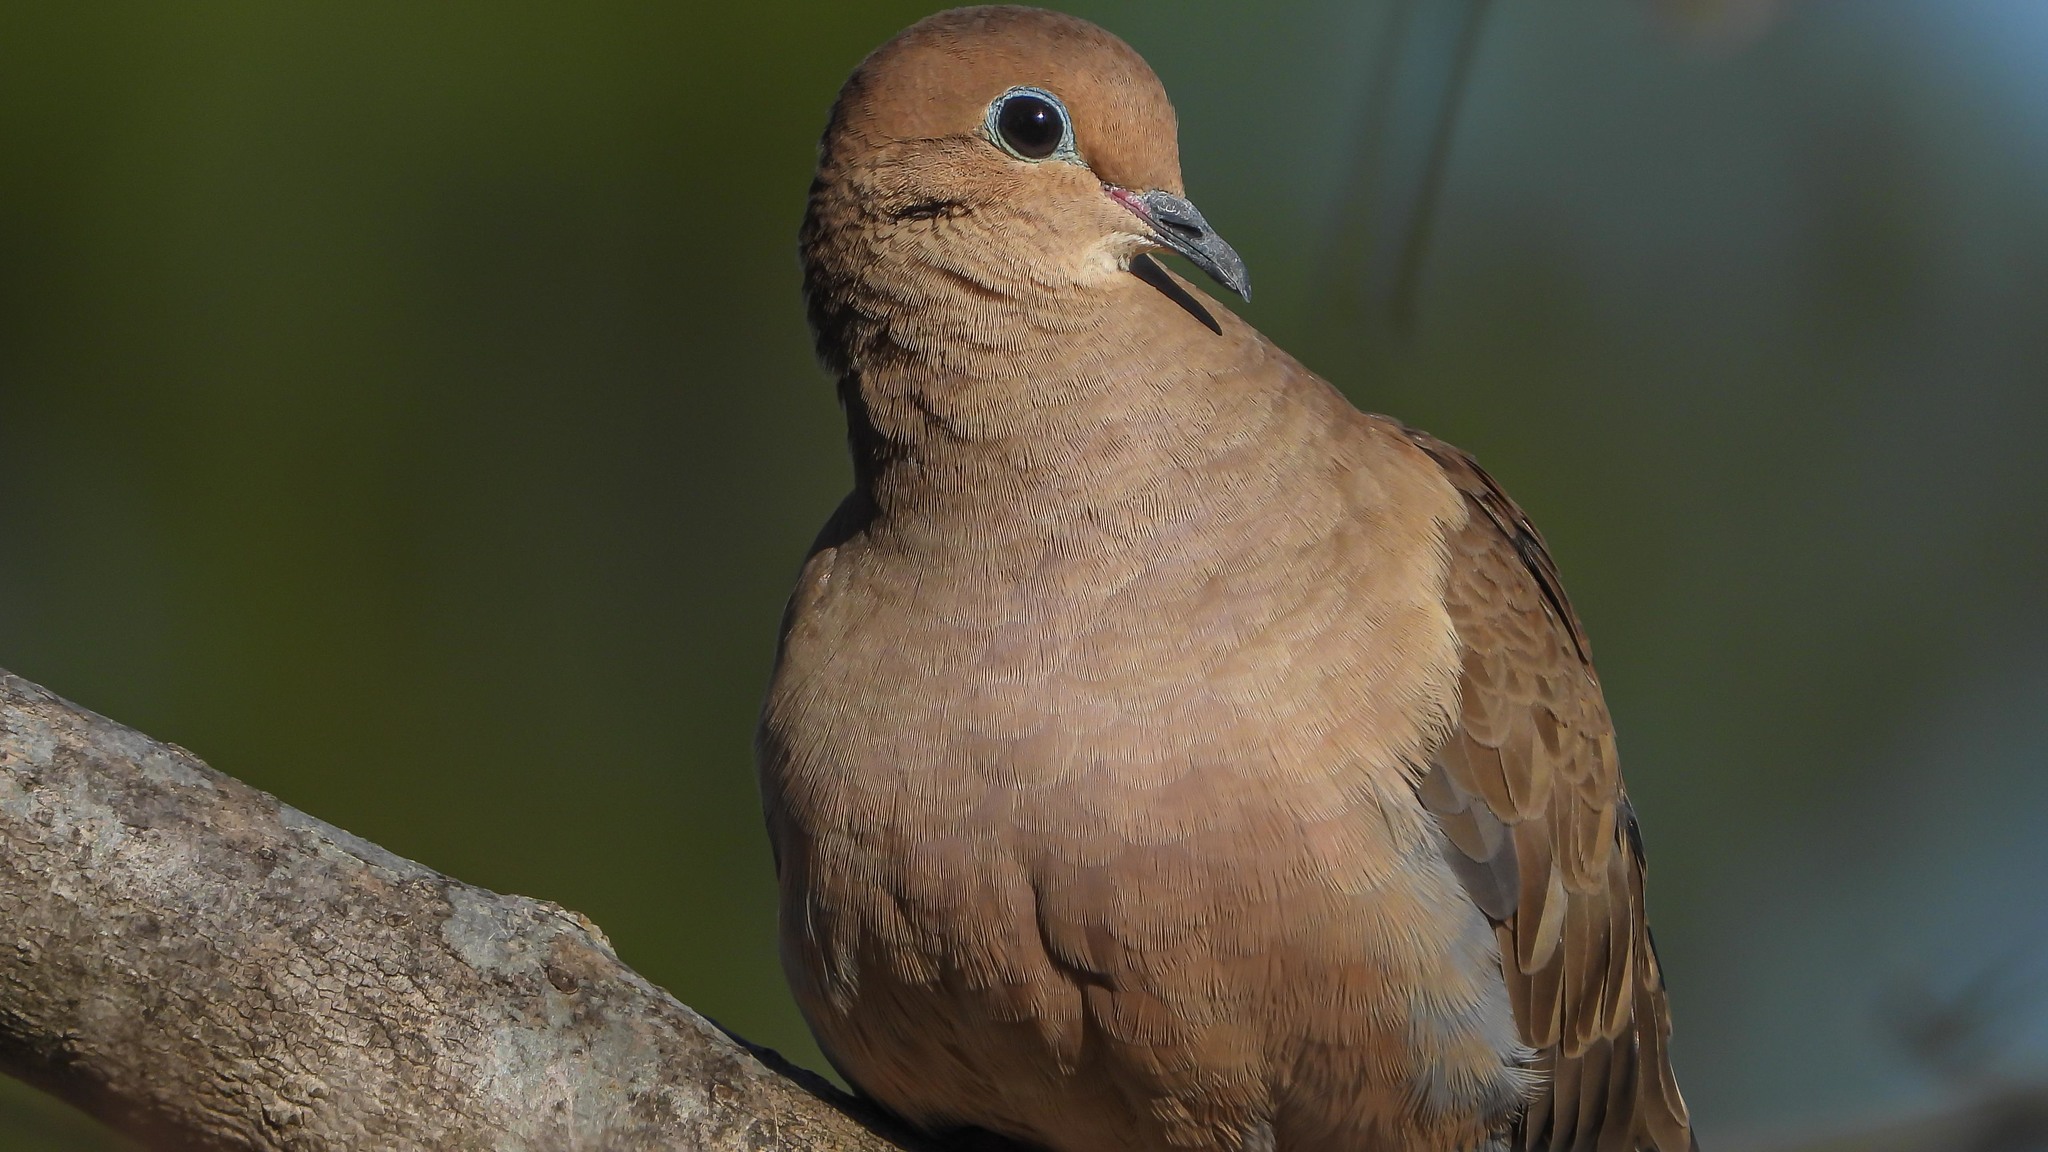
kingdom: Animalia
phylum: Chordata
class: Aves
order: Columbiformes
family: Columbidae
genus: Zenaida
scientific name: Zenaida macroura
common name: Mourning dove
